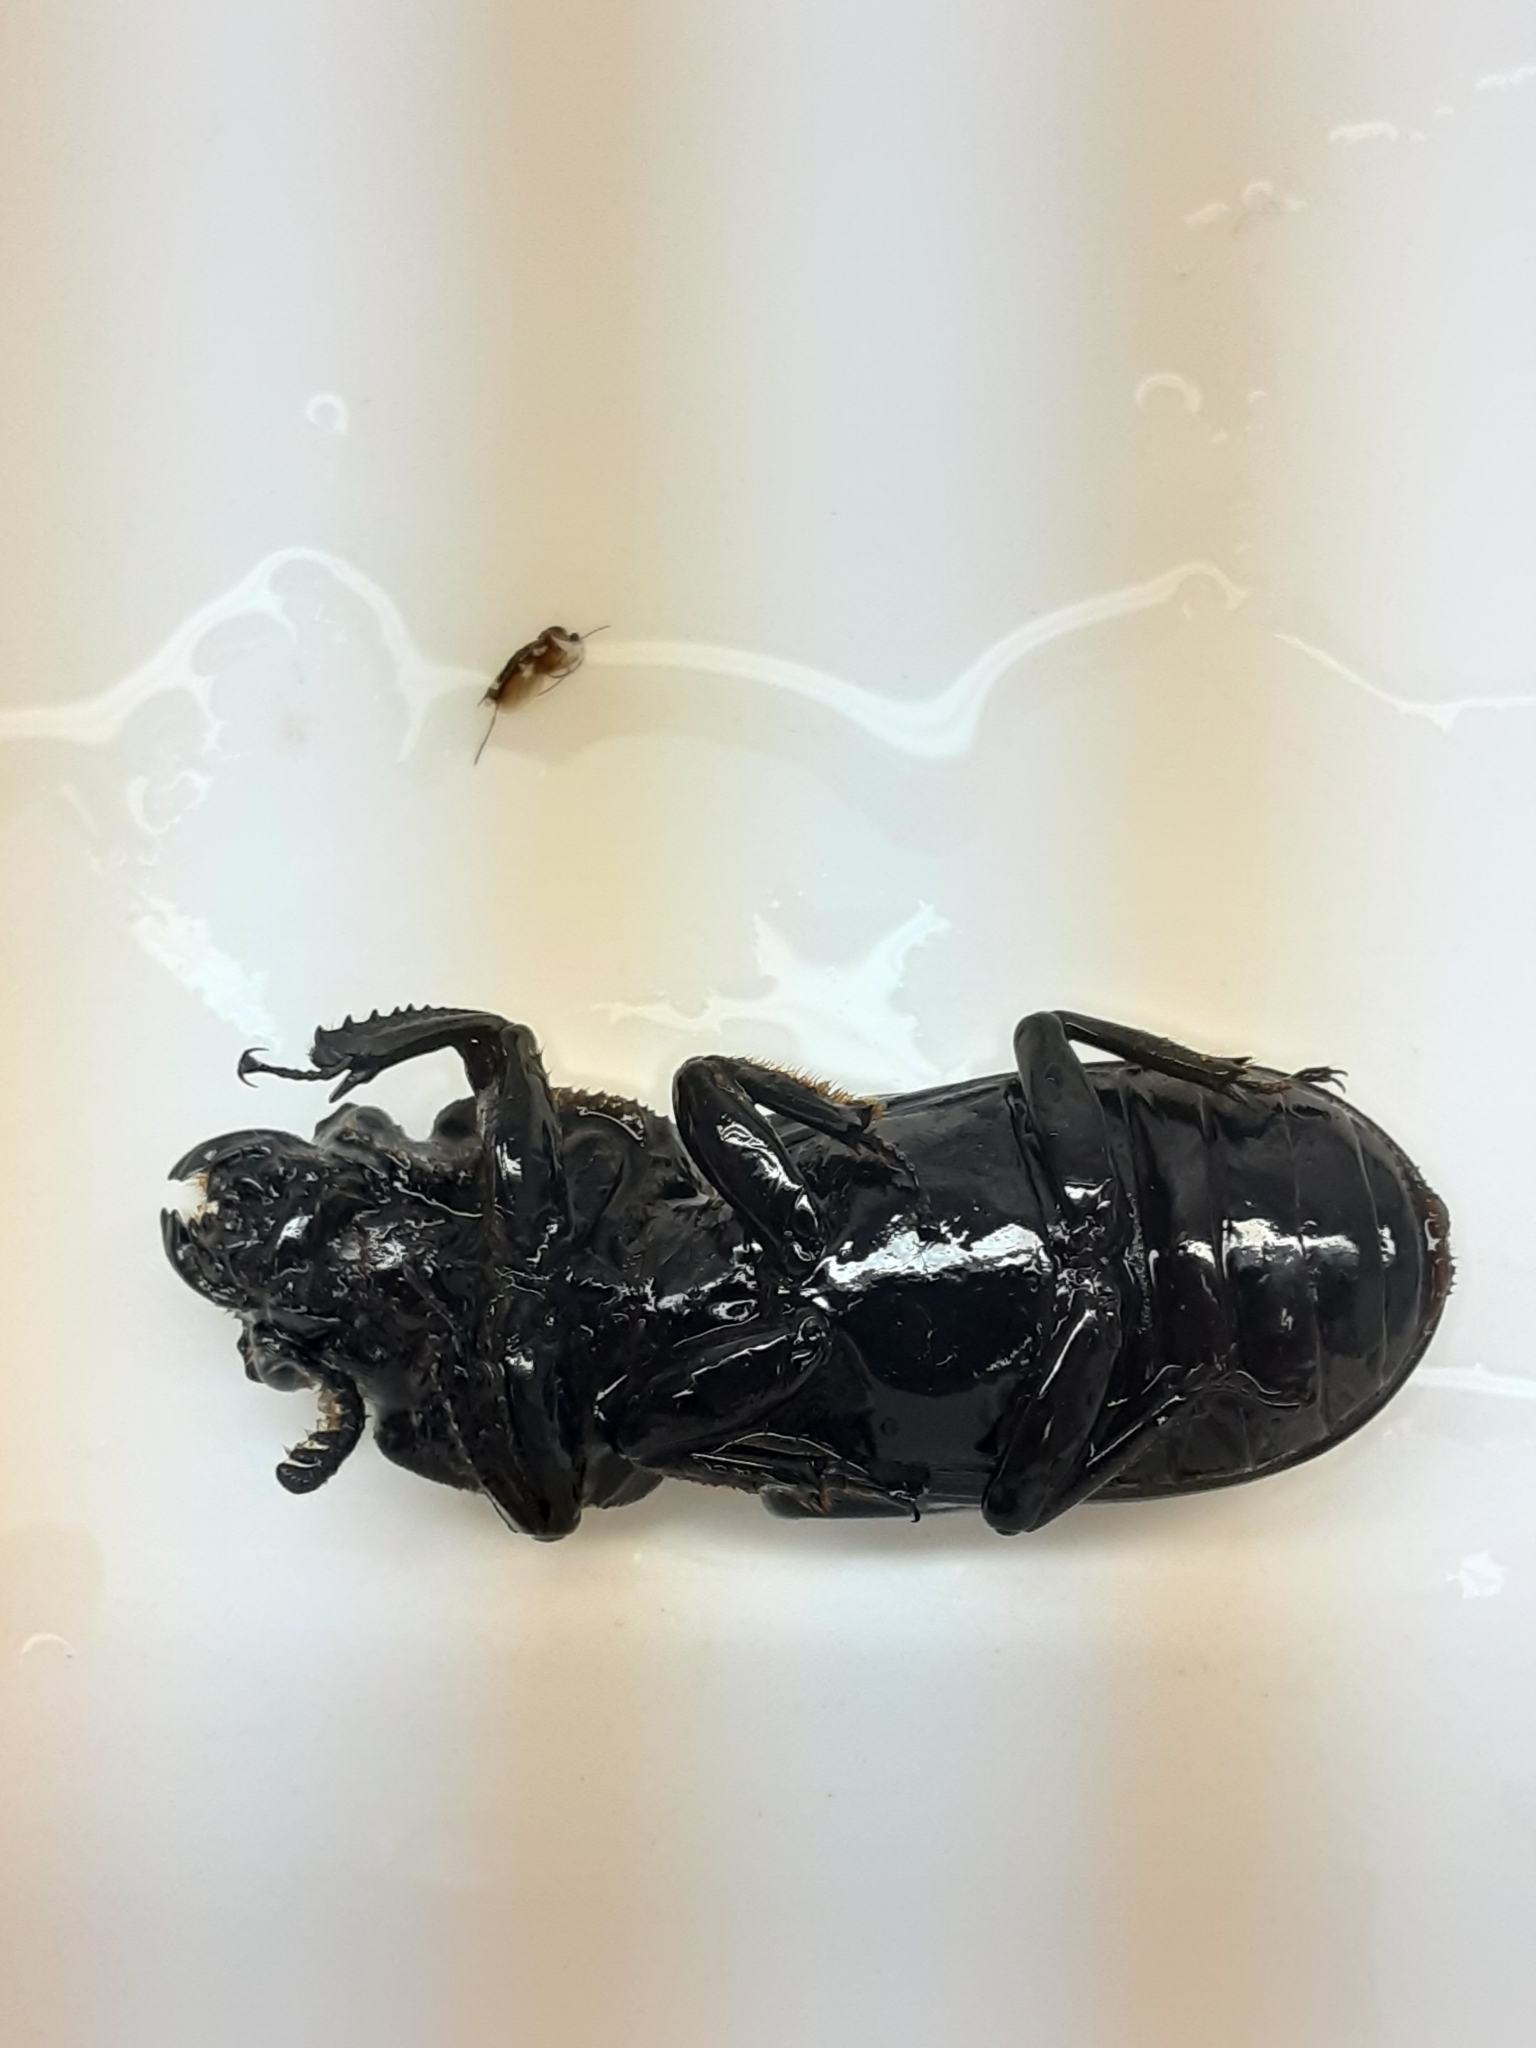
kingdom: Animalia
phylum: Arthropoda
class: Insecta
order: Coleoptera
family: Passalidae
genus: Odontotaenius
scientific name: Odontotaenius disjunctus
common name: Patent leather beetle
